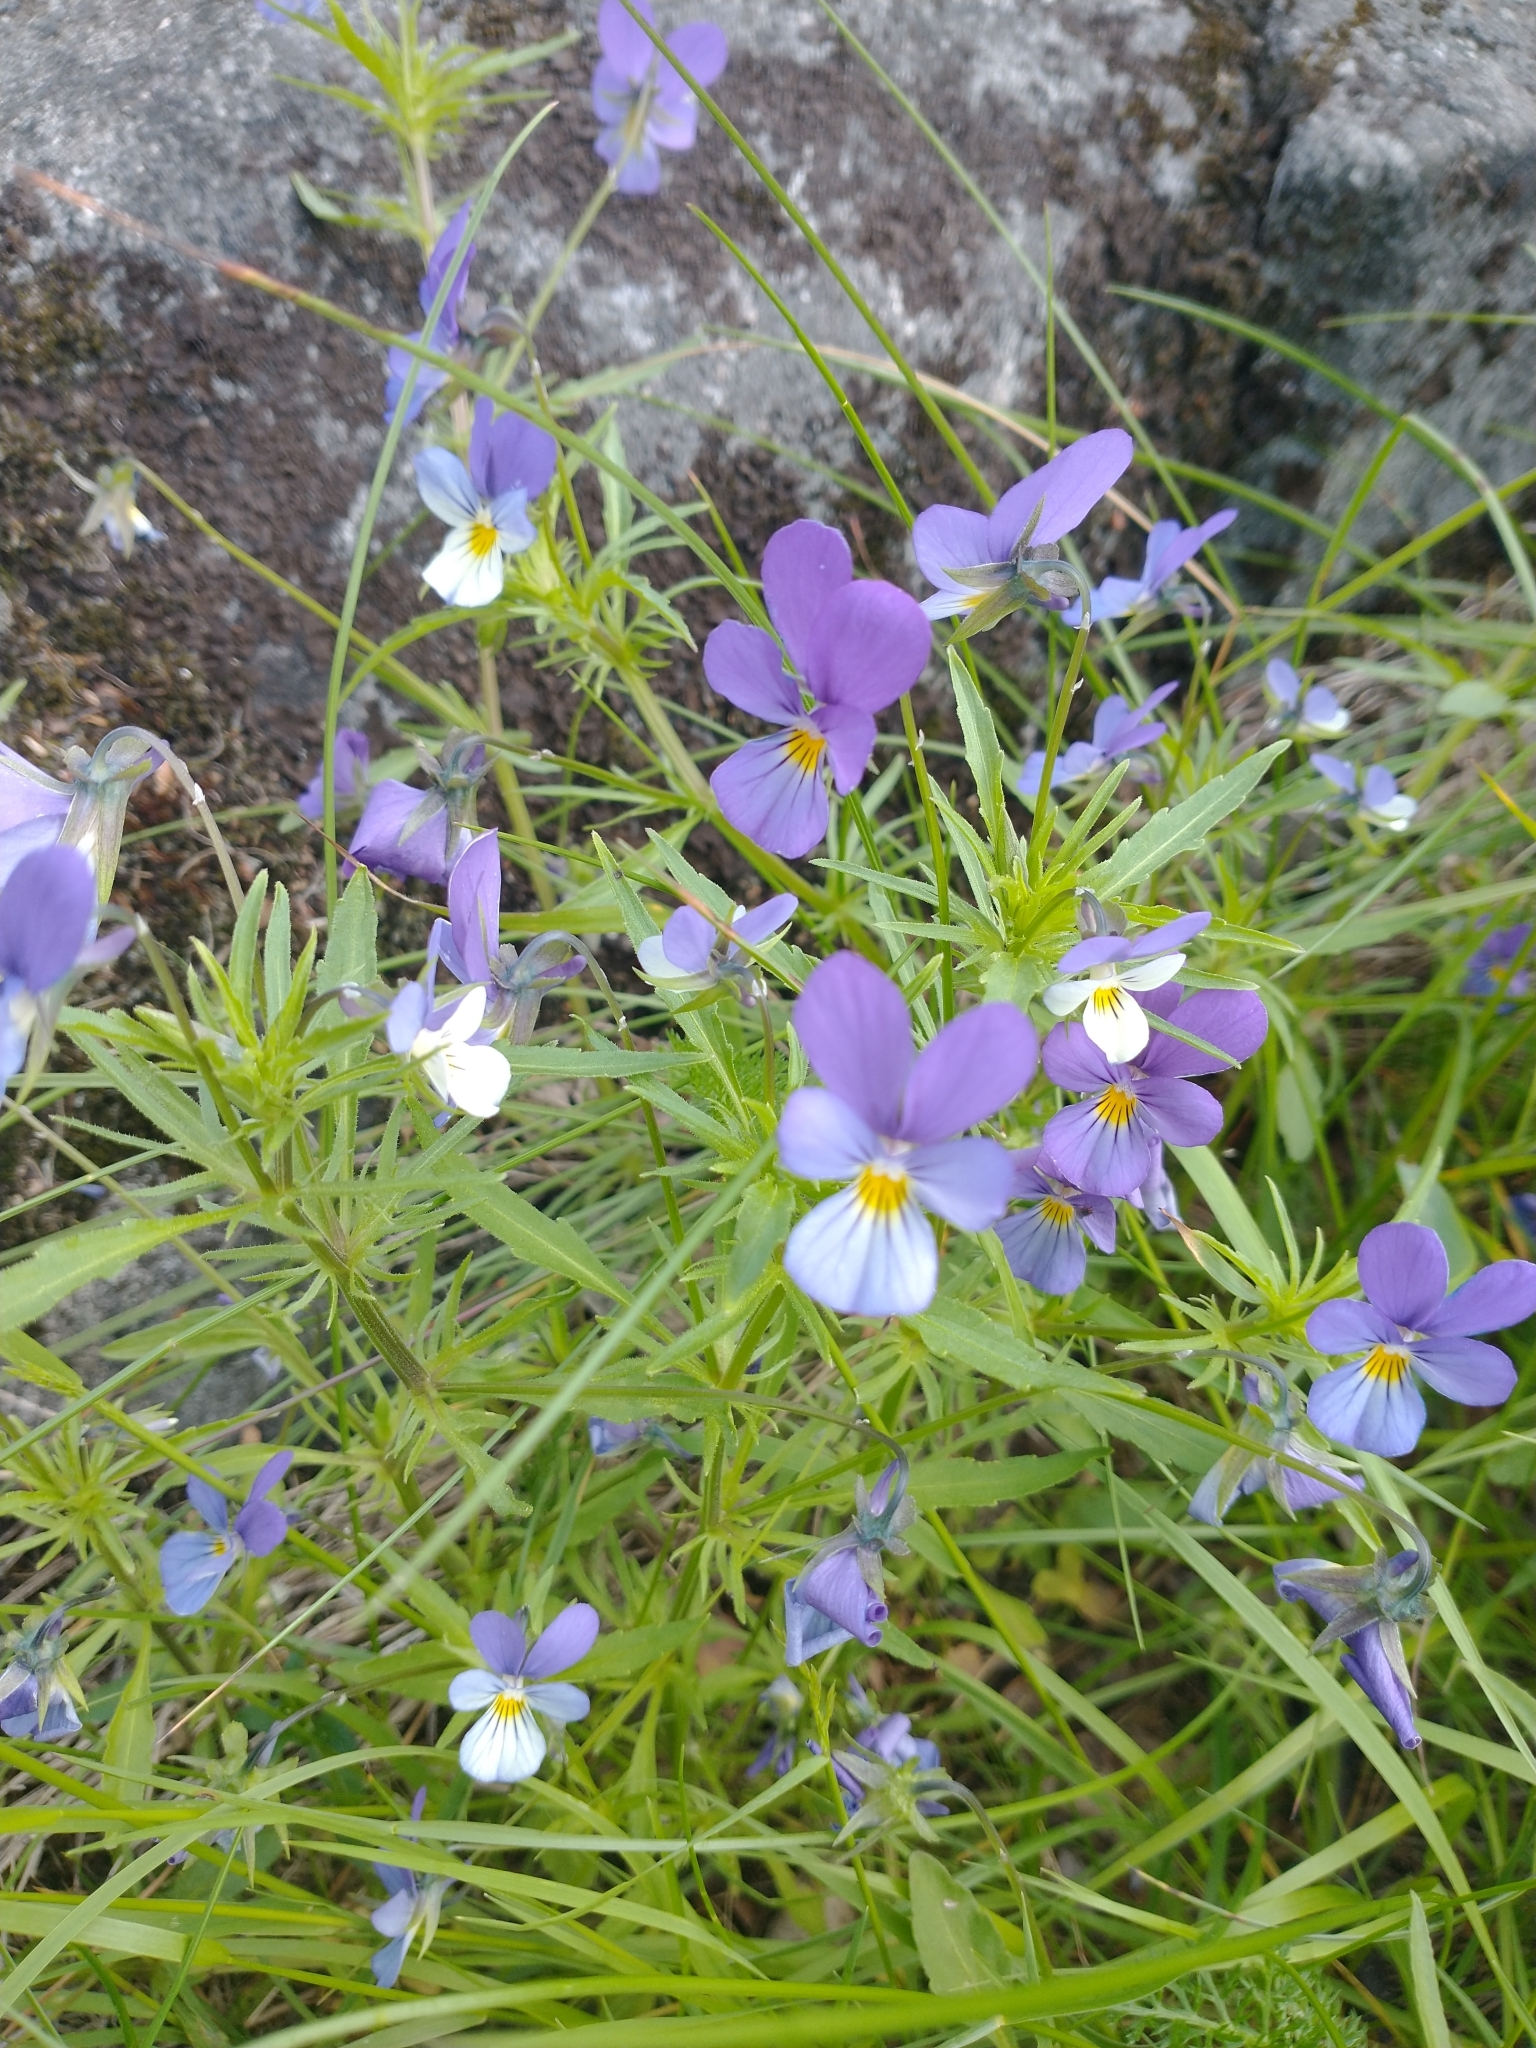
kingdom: Plantae
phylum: Tracheophyta
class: Magnoliopsida
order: Malpighiales
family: Violaceae
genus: Viola
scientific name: Viola tricolor
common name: Pansy
